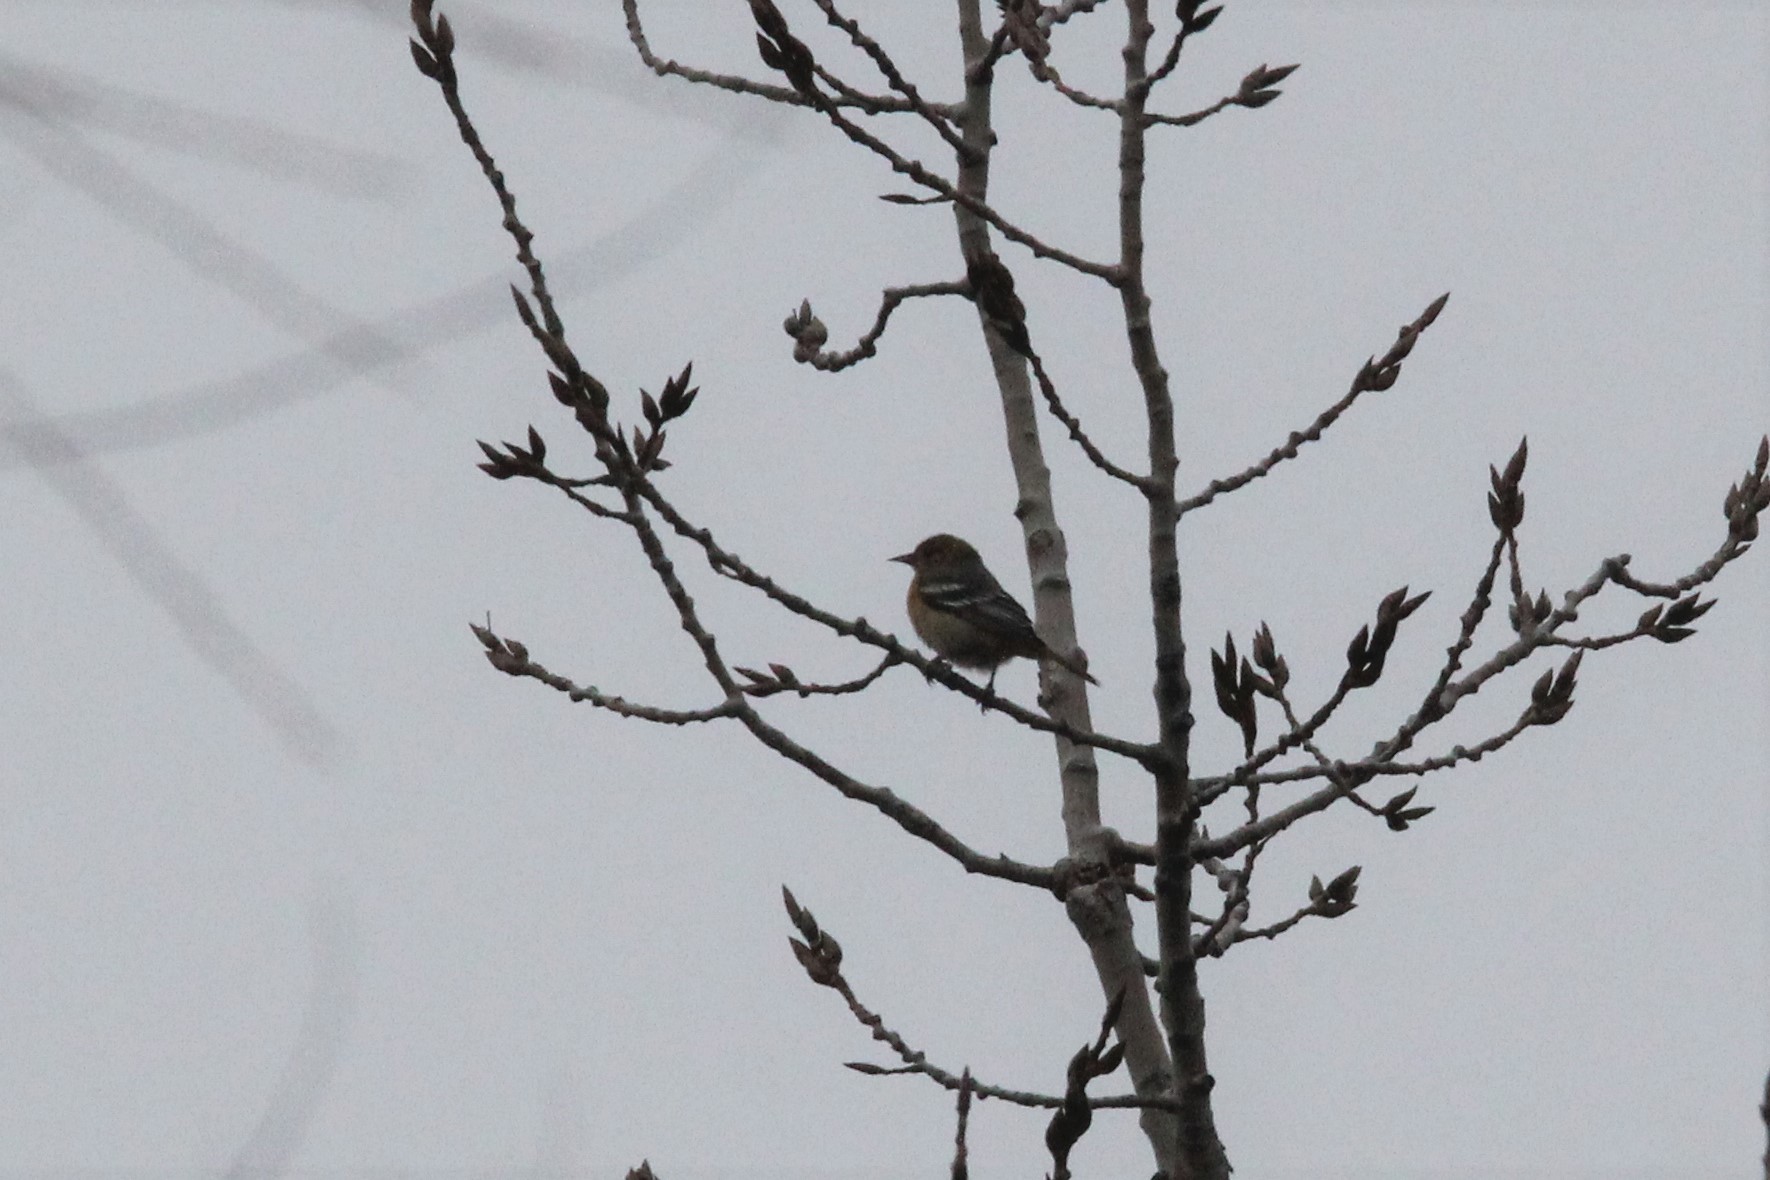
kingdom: Animalia
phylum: Chordata
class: Aves
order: Passeriformes
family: Icteridae
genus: Icterus
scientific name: Icterus galbula
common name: Baltimore oriole
